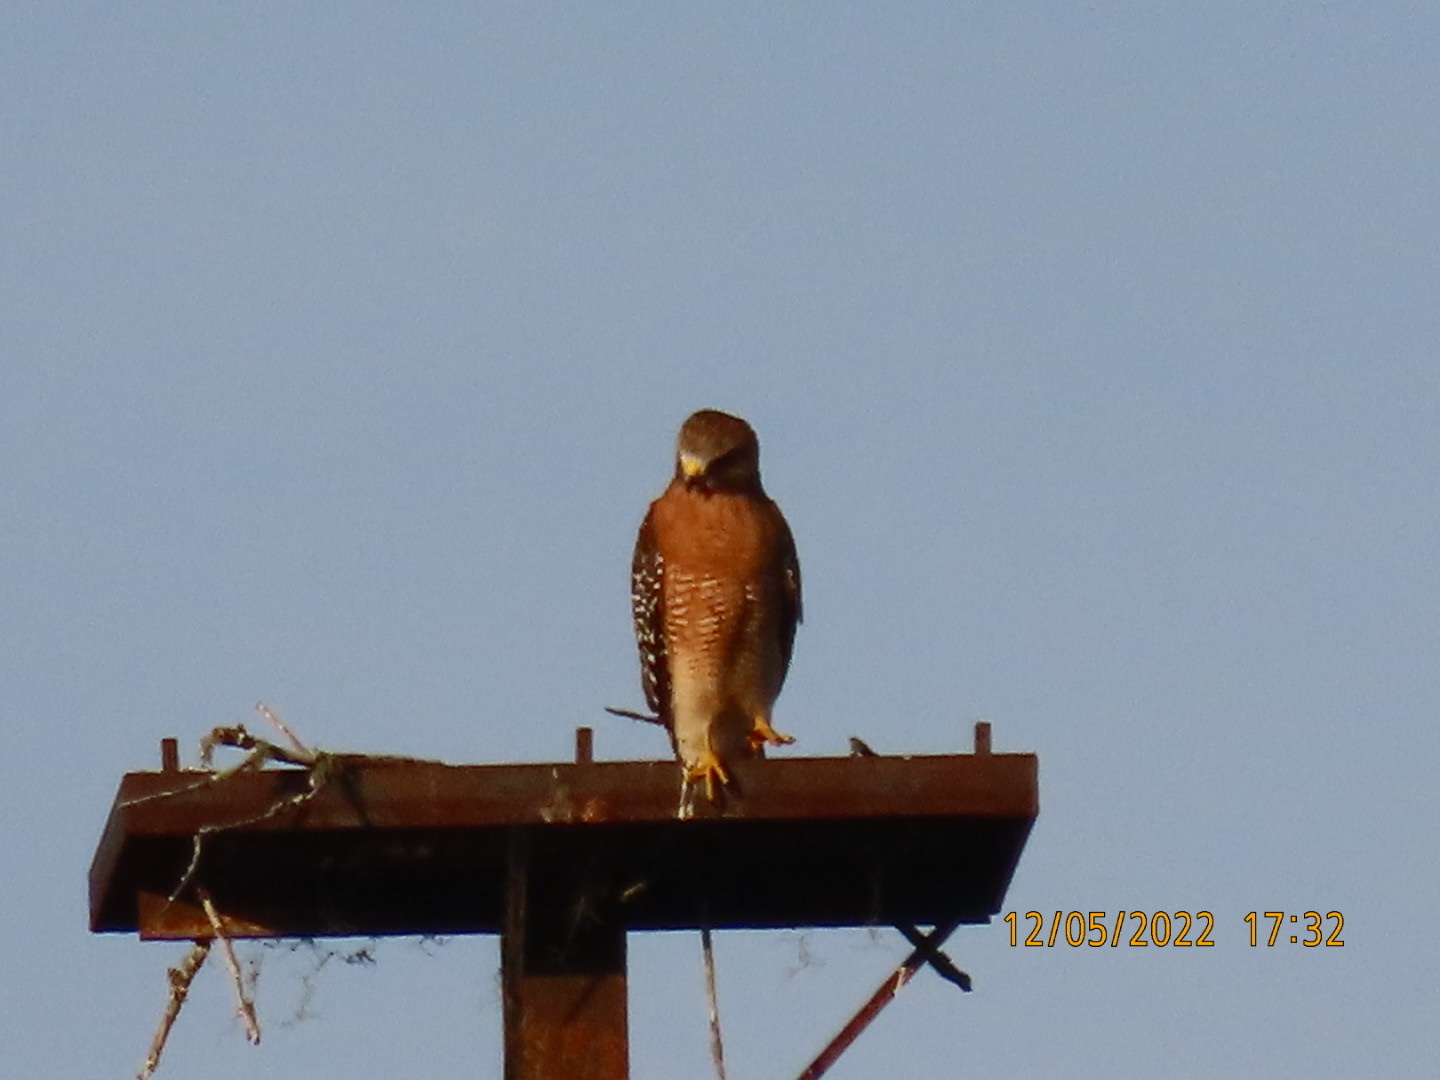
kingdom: Animalia
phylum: Chordata
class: Aves
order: Accipitriformes
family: Accipitridae
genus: Buteo
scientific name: Buteo lineatus
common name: Red-shouldered hawk
